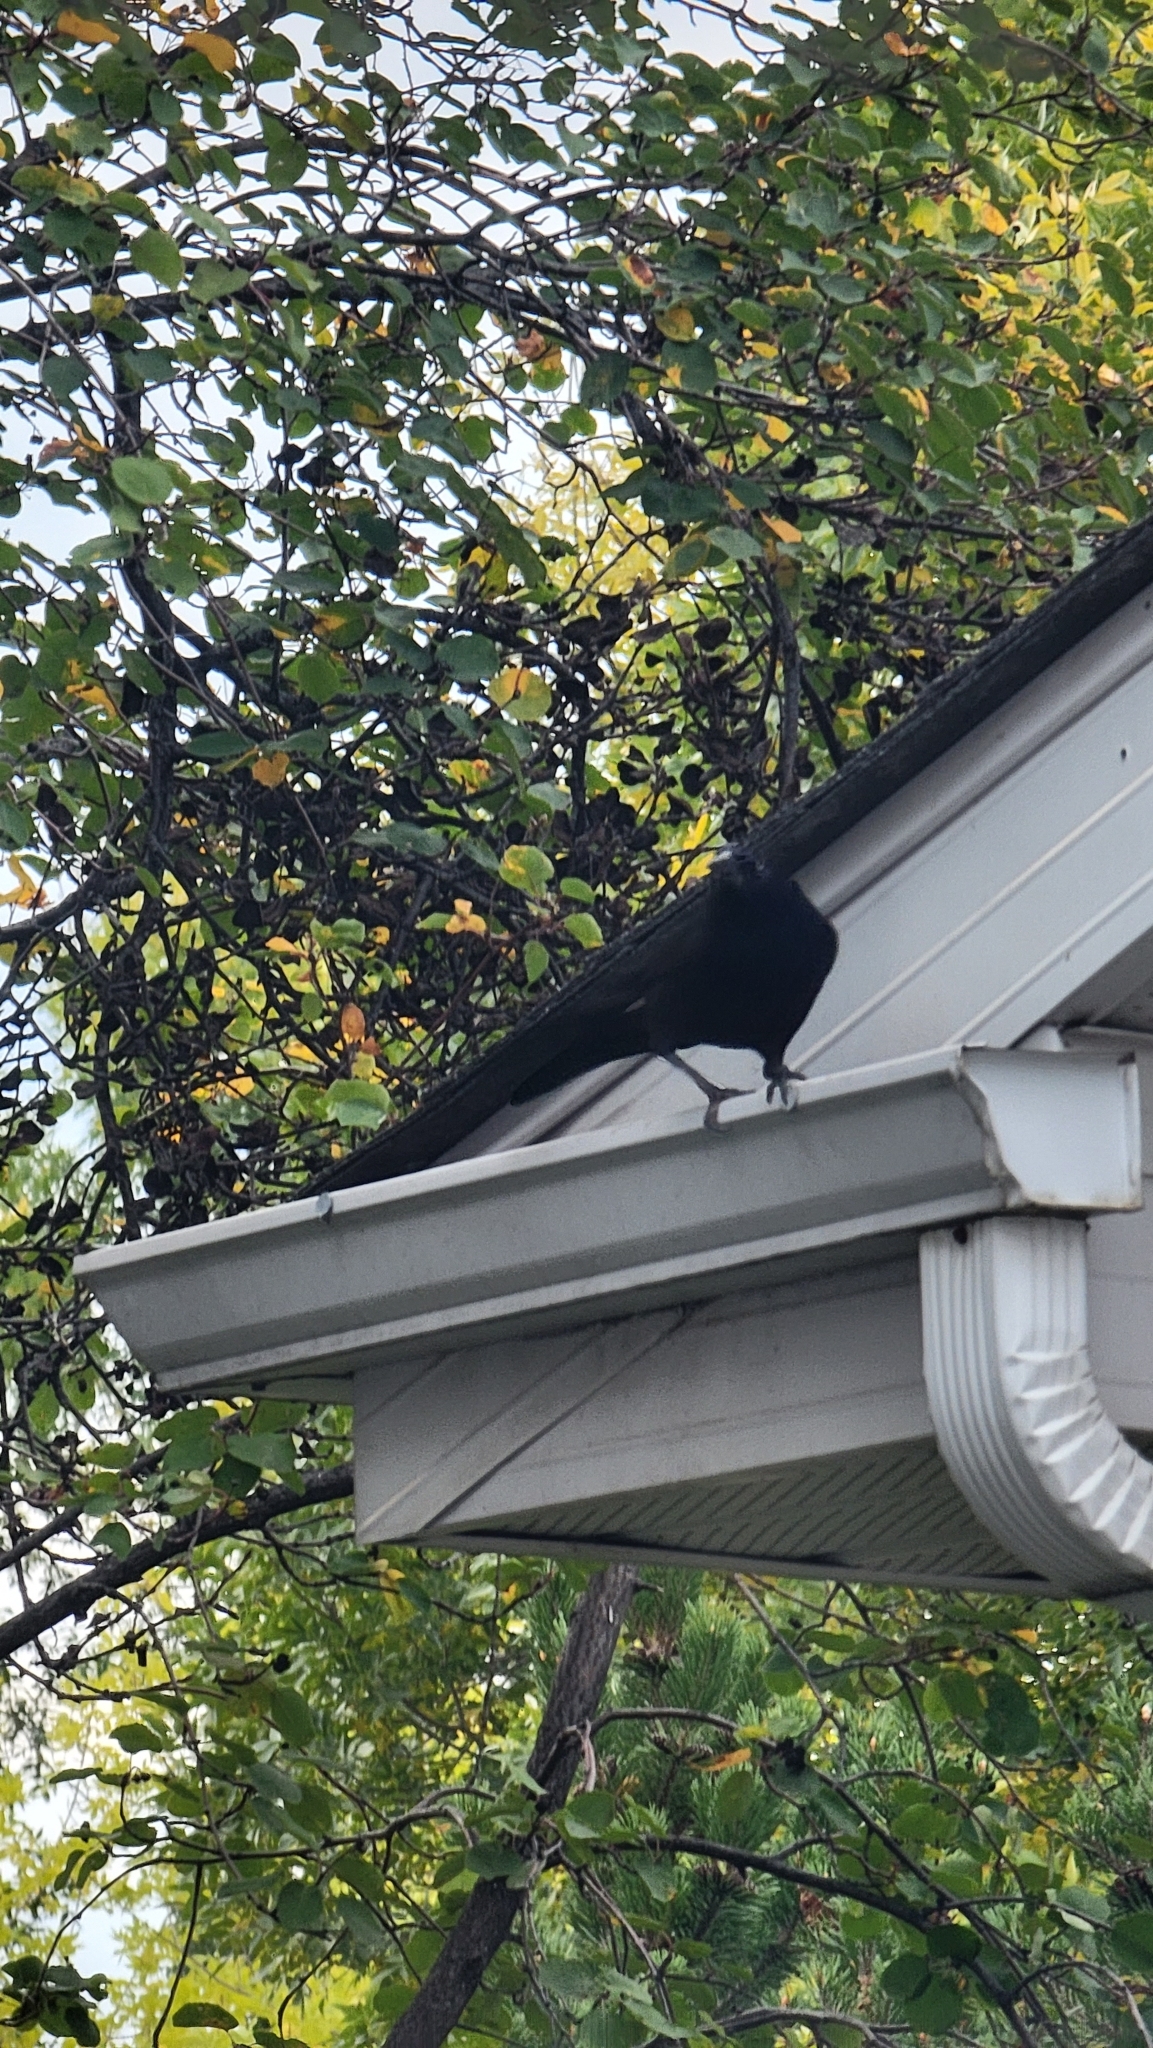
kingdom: Animalia
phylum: Chordata
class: Aves
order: Passeriformes
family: Icteridae
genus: Quiscalus
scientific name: Quiscalus quiscula
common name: Common grackle
